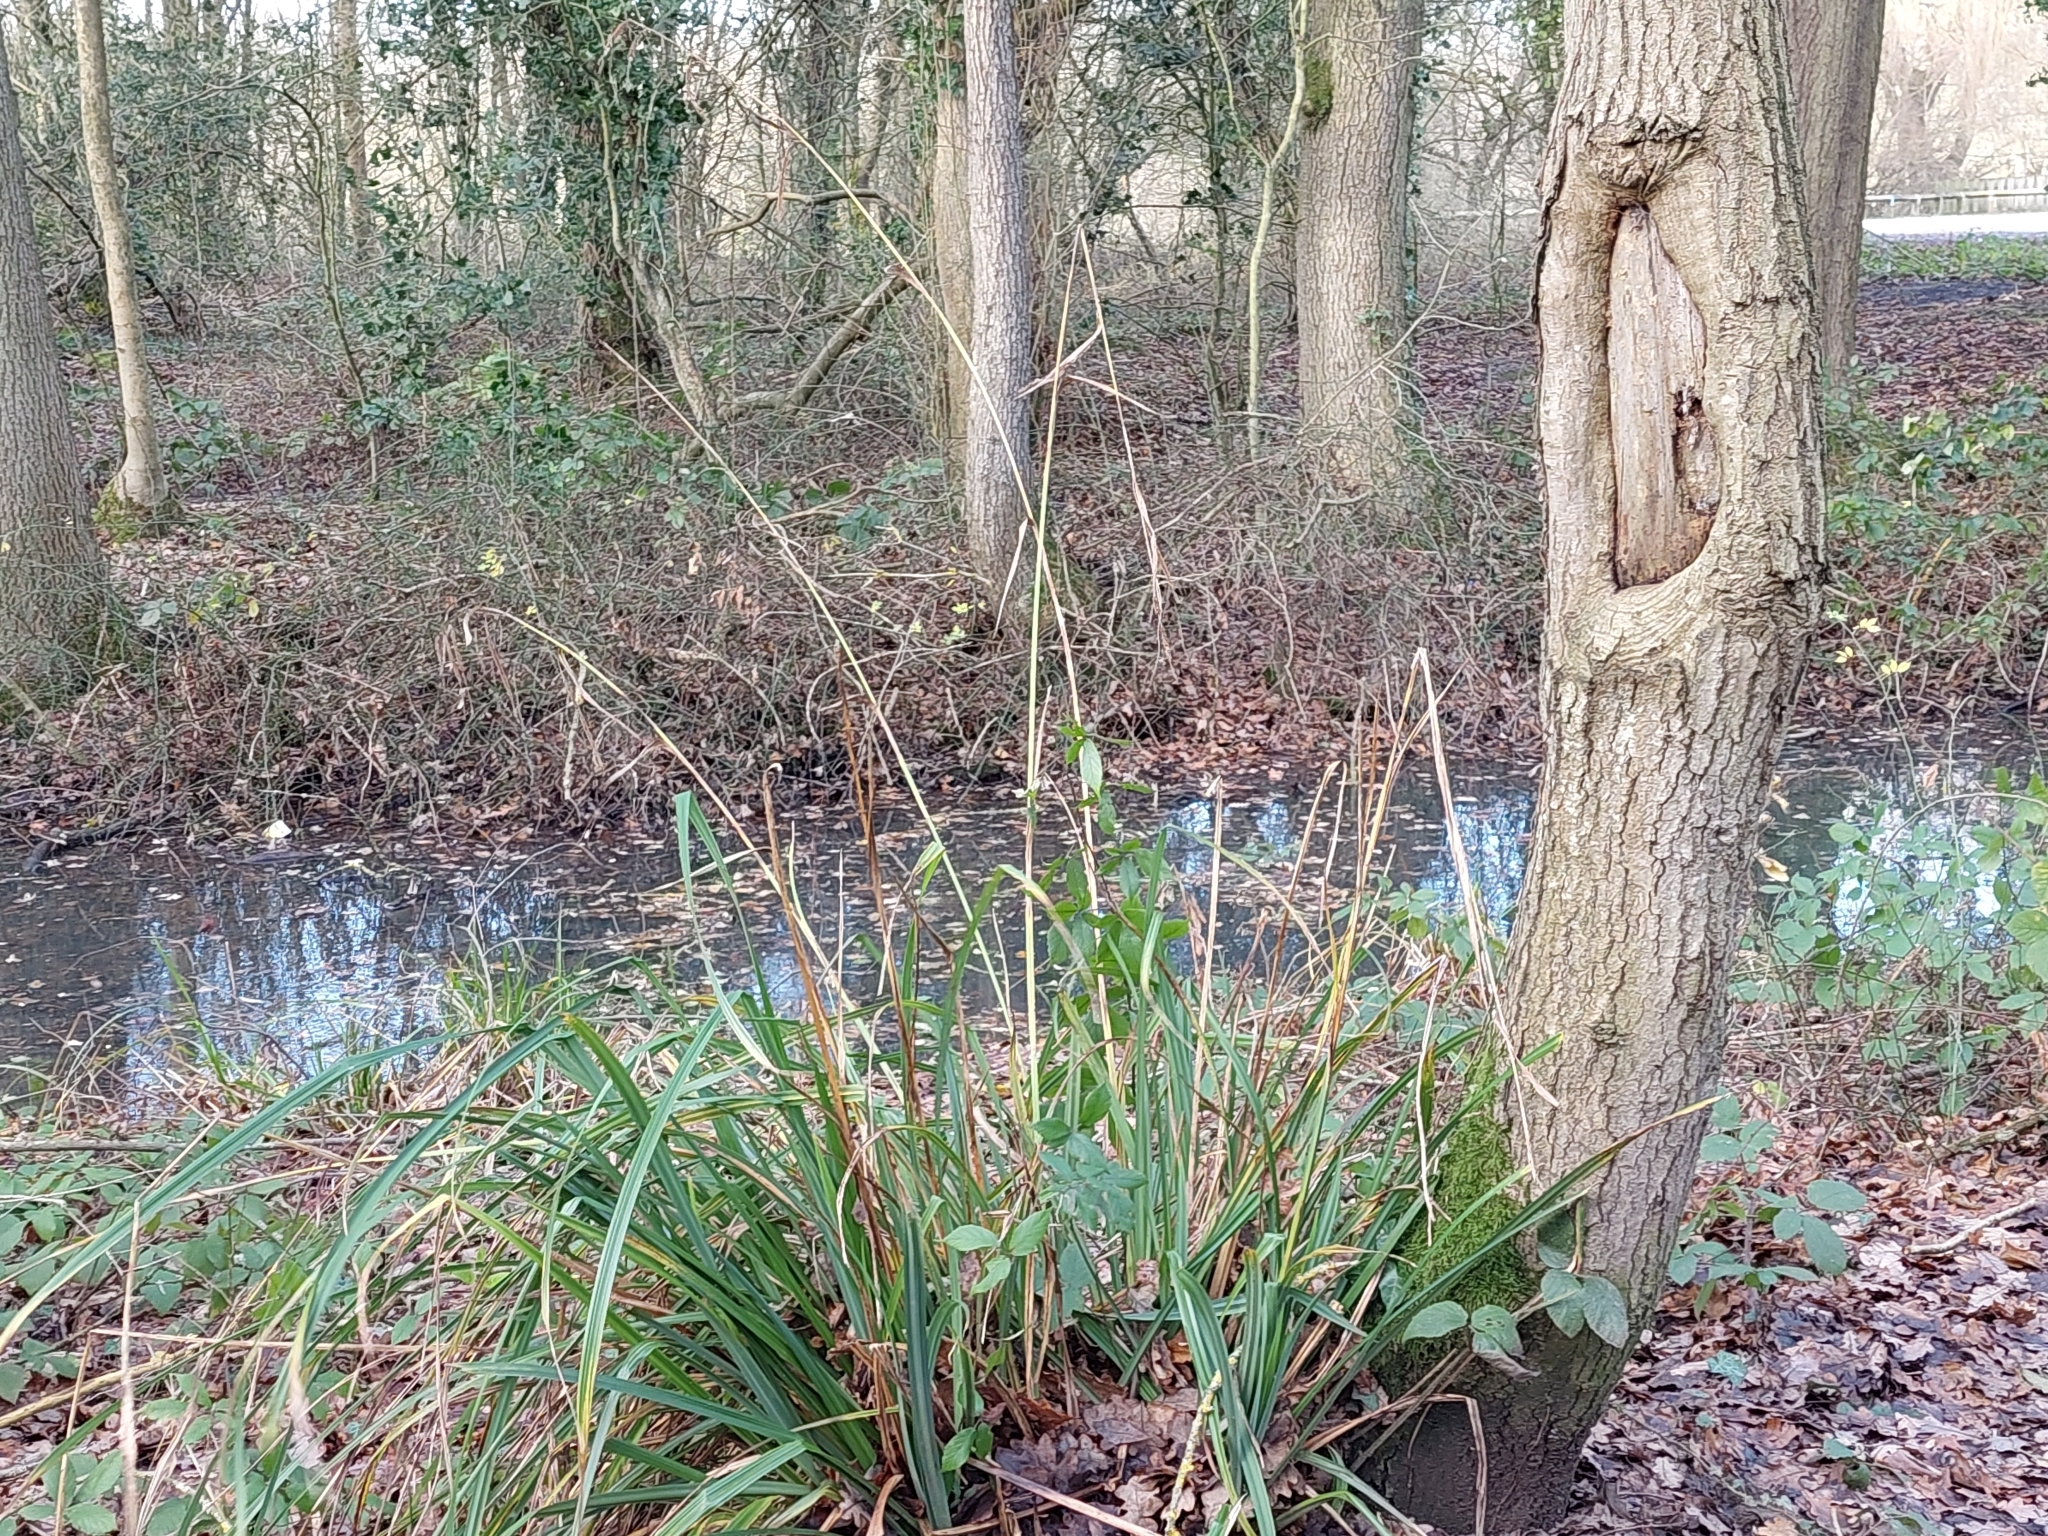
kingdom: Plantae
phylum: Tracheophyta
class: Liliopsida
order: Poales
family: Cyperaceae
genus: Carex
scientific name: Carex pendula
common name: Pendulous sedge
